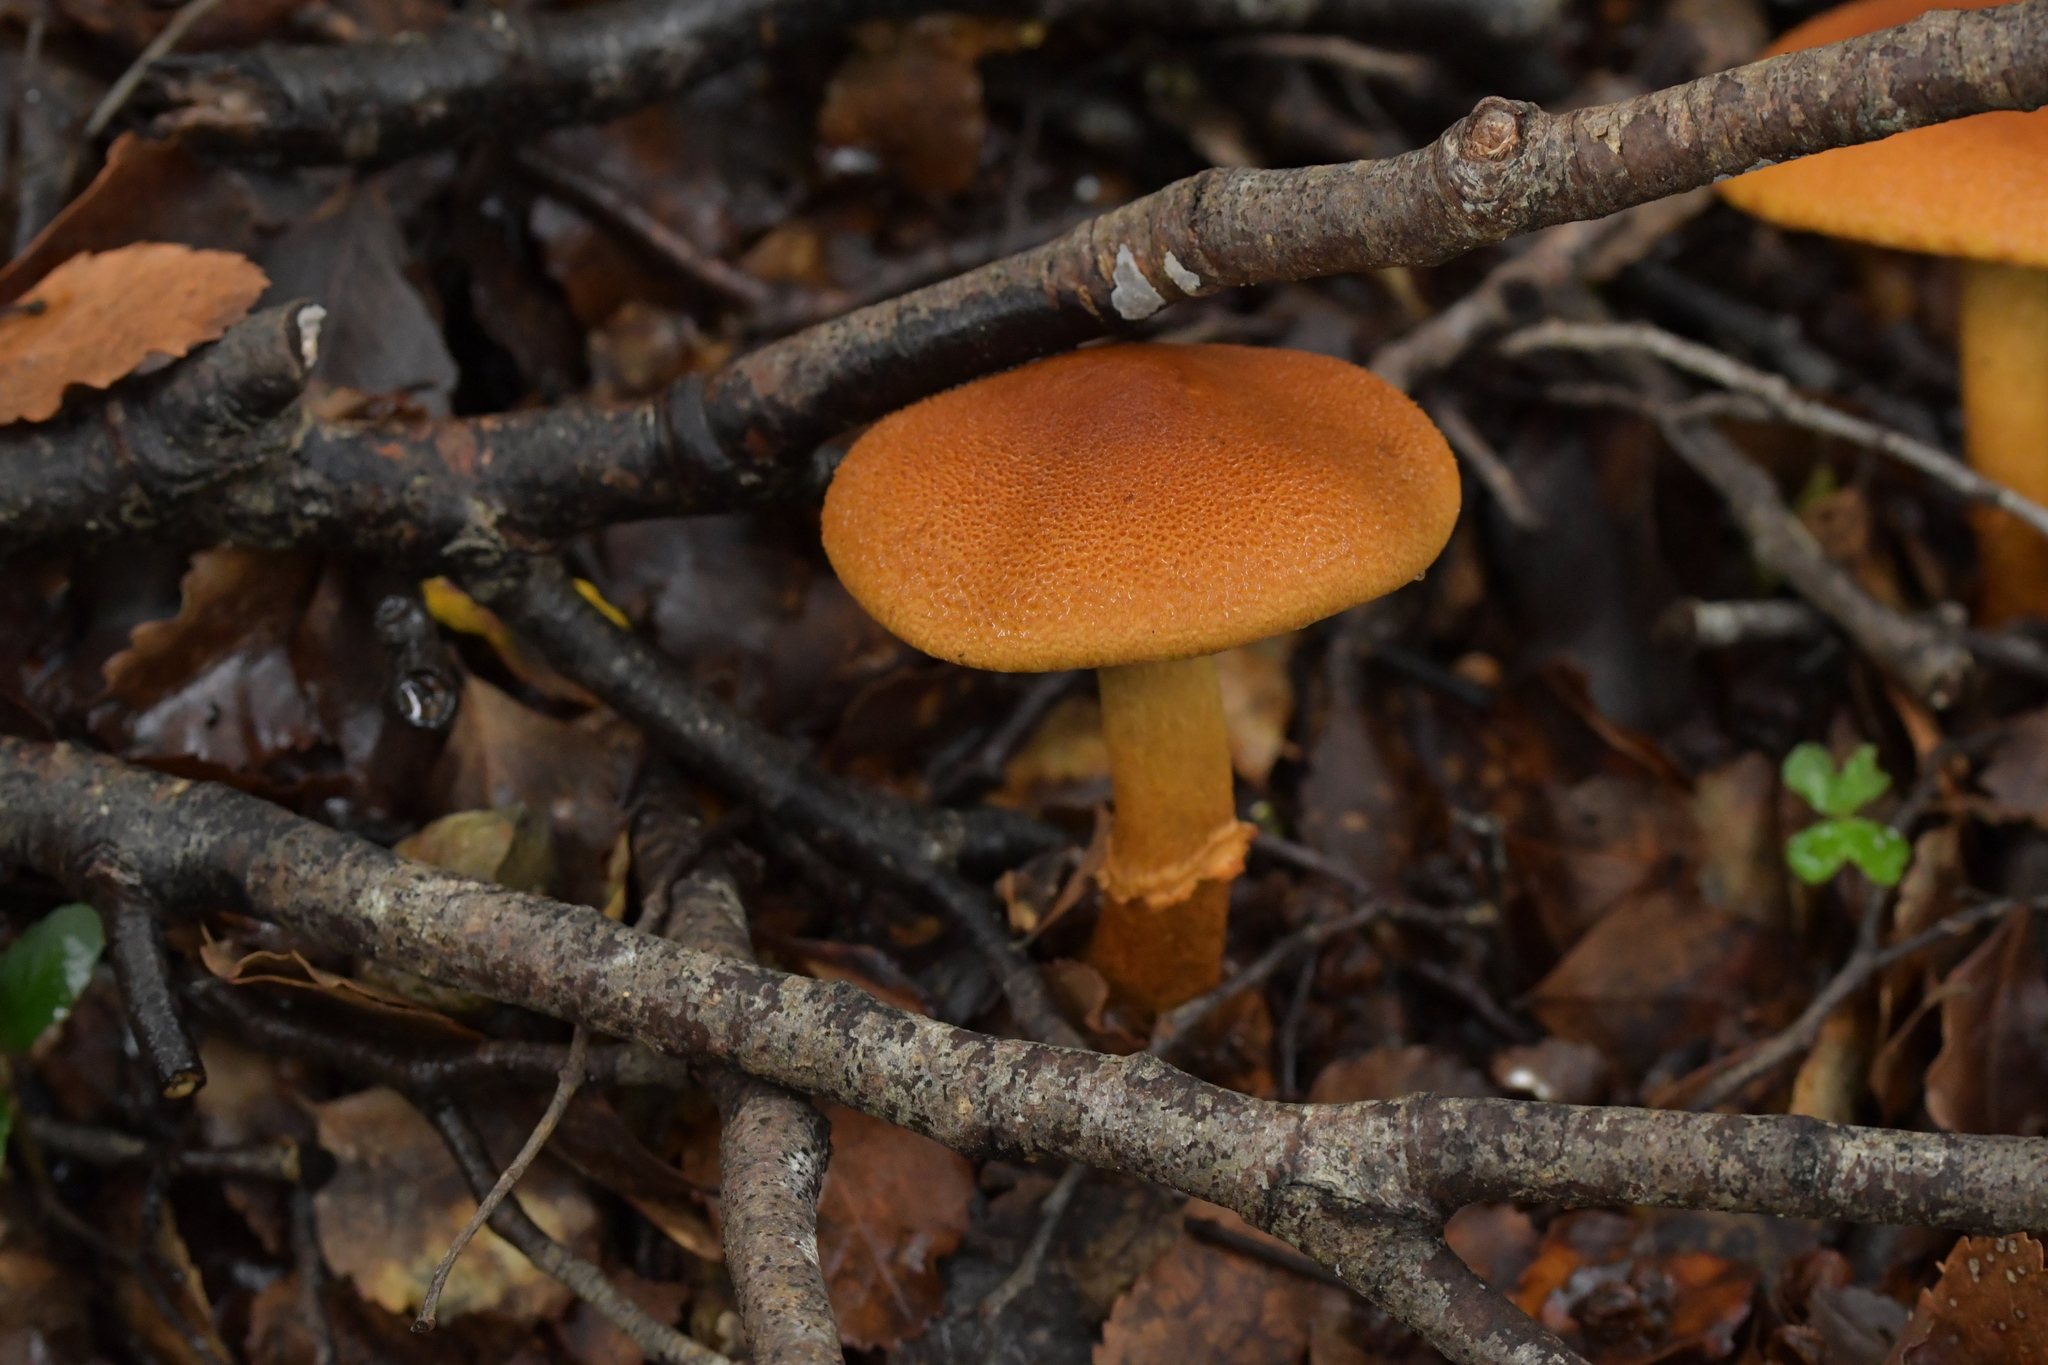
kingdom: Fungi
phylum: Basidiomycota
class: Agaricomycetes
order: Agaricales
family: Cortinariaceae
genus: Thaxterogaster
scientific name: Thaxterogaster castoreus
